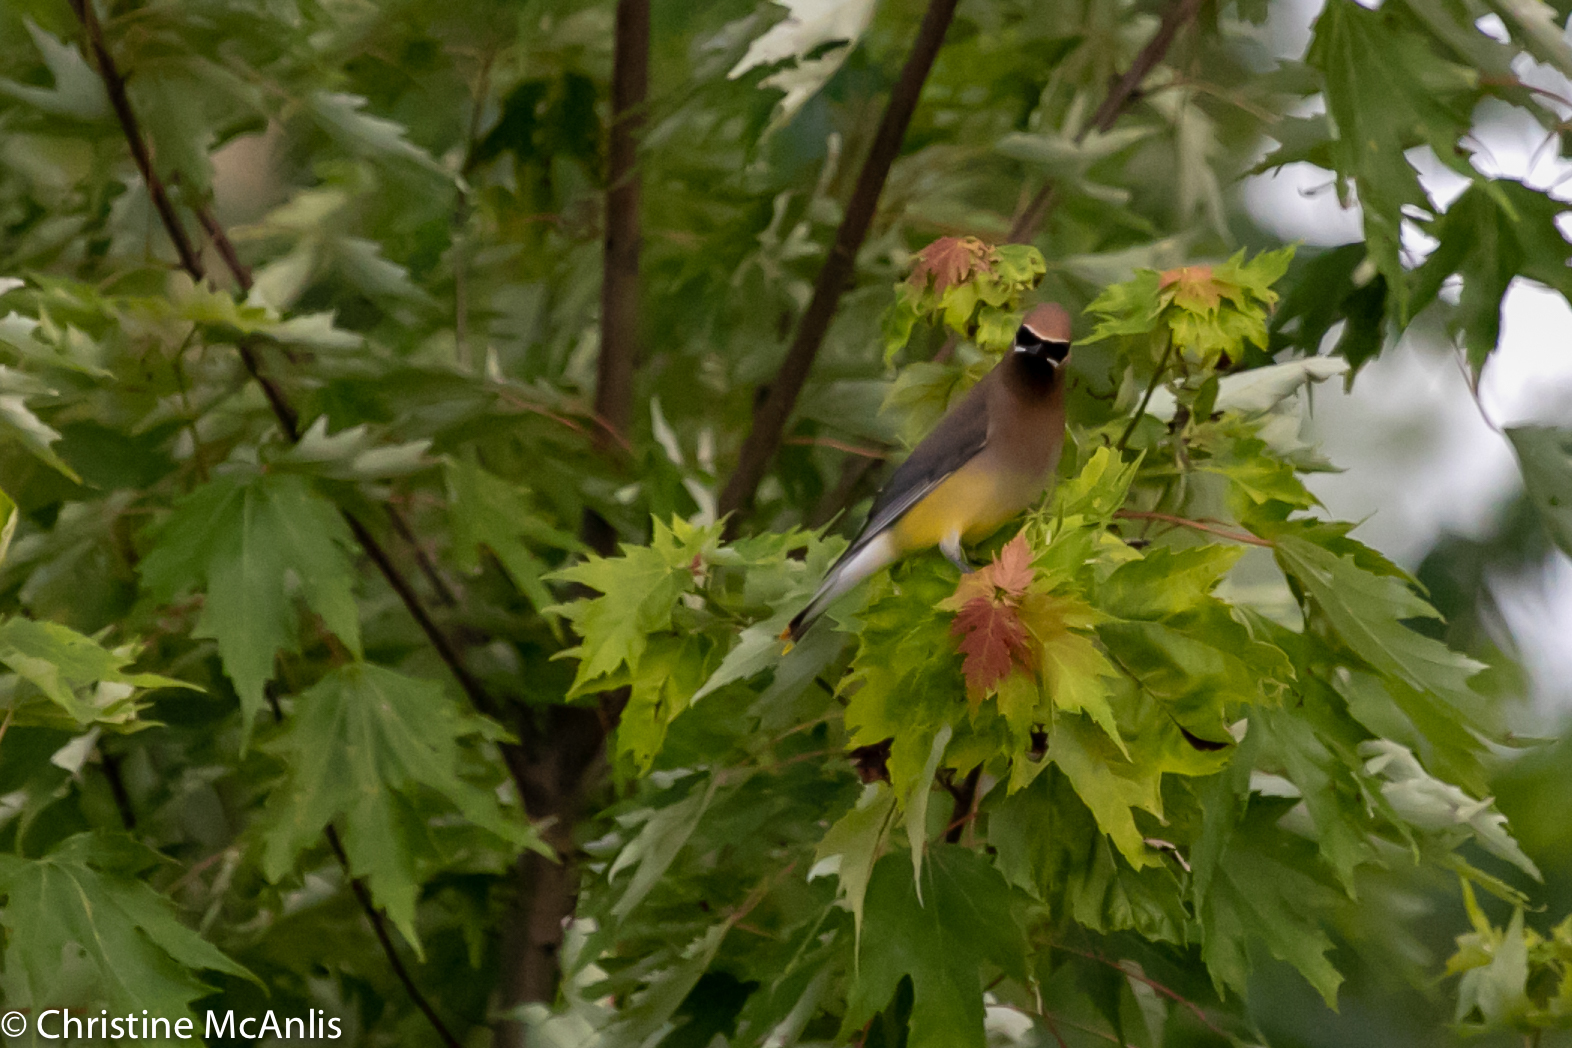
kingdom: Animalia
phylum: Chordata
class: Aves
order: Passeriformes
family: Bombycillidae
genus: Bombycilla
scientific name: Bombycilla cedrorum
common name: Cedar waxwing
